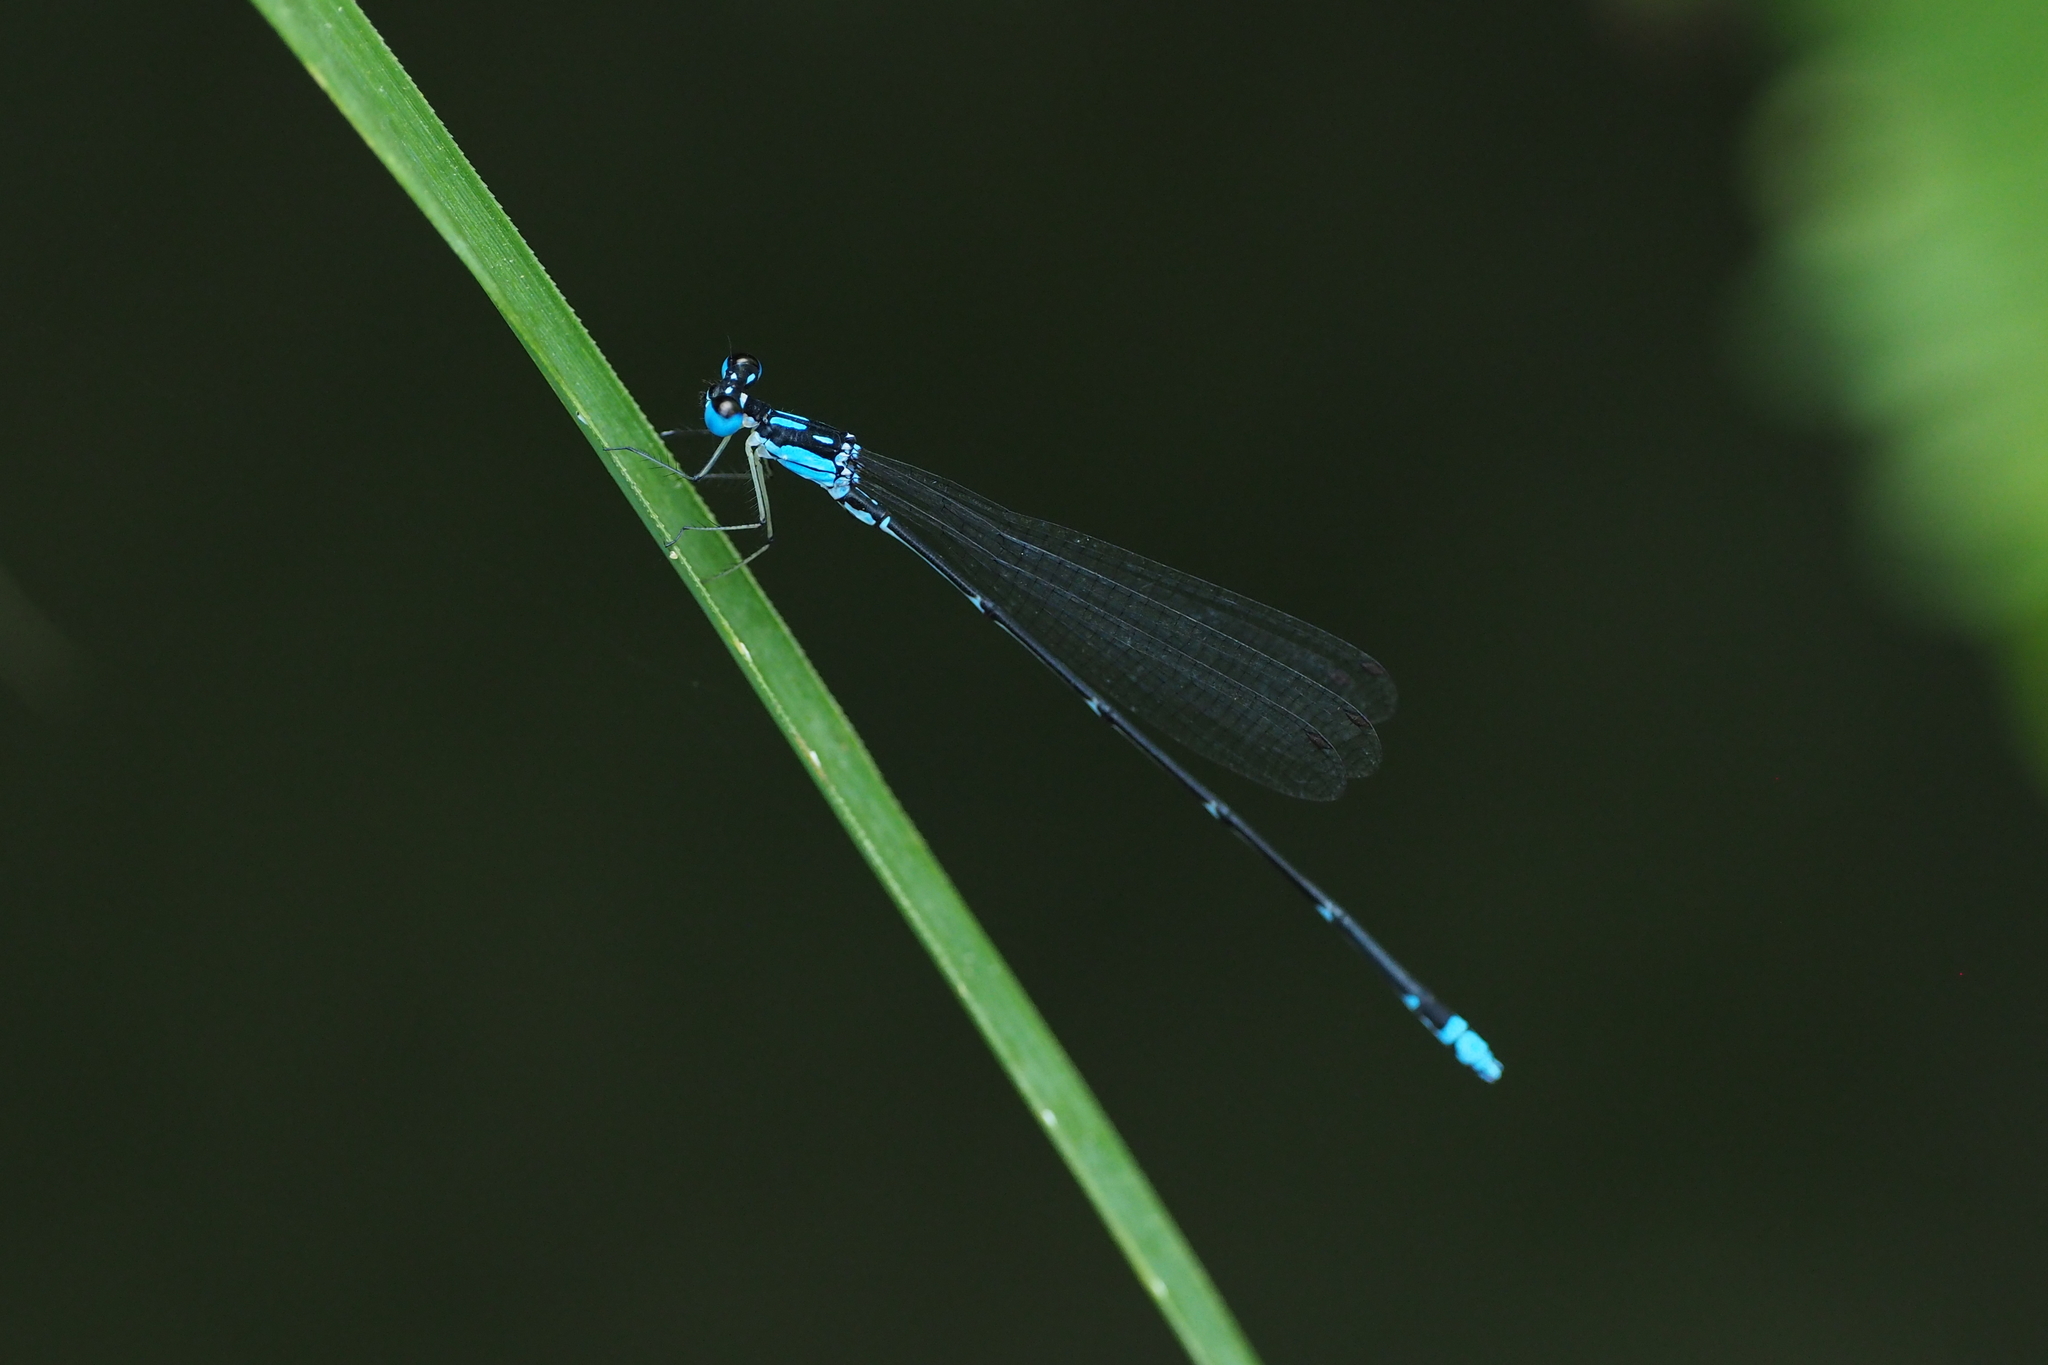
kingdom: Animalia
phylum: Arthropoda
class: Insecta
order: Odonata
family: Platycnemididae
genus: Coeliccia
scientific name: Coeliccia cyanomelas
